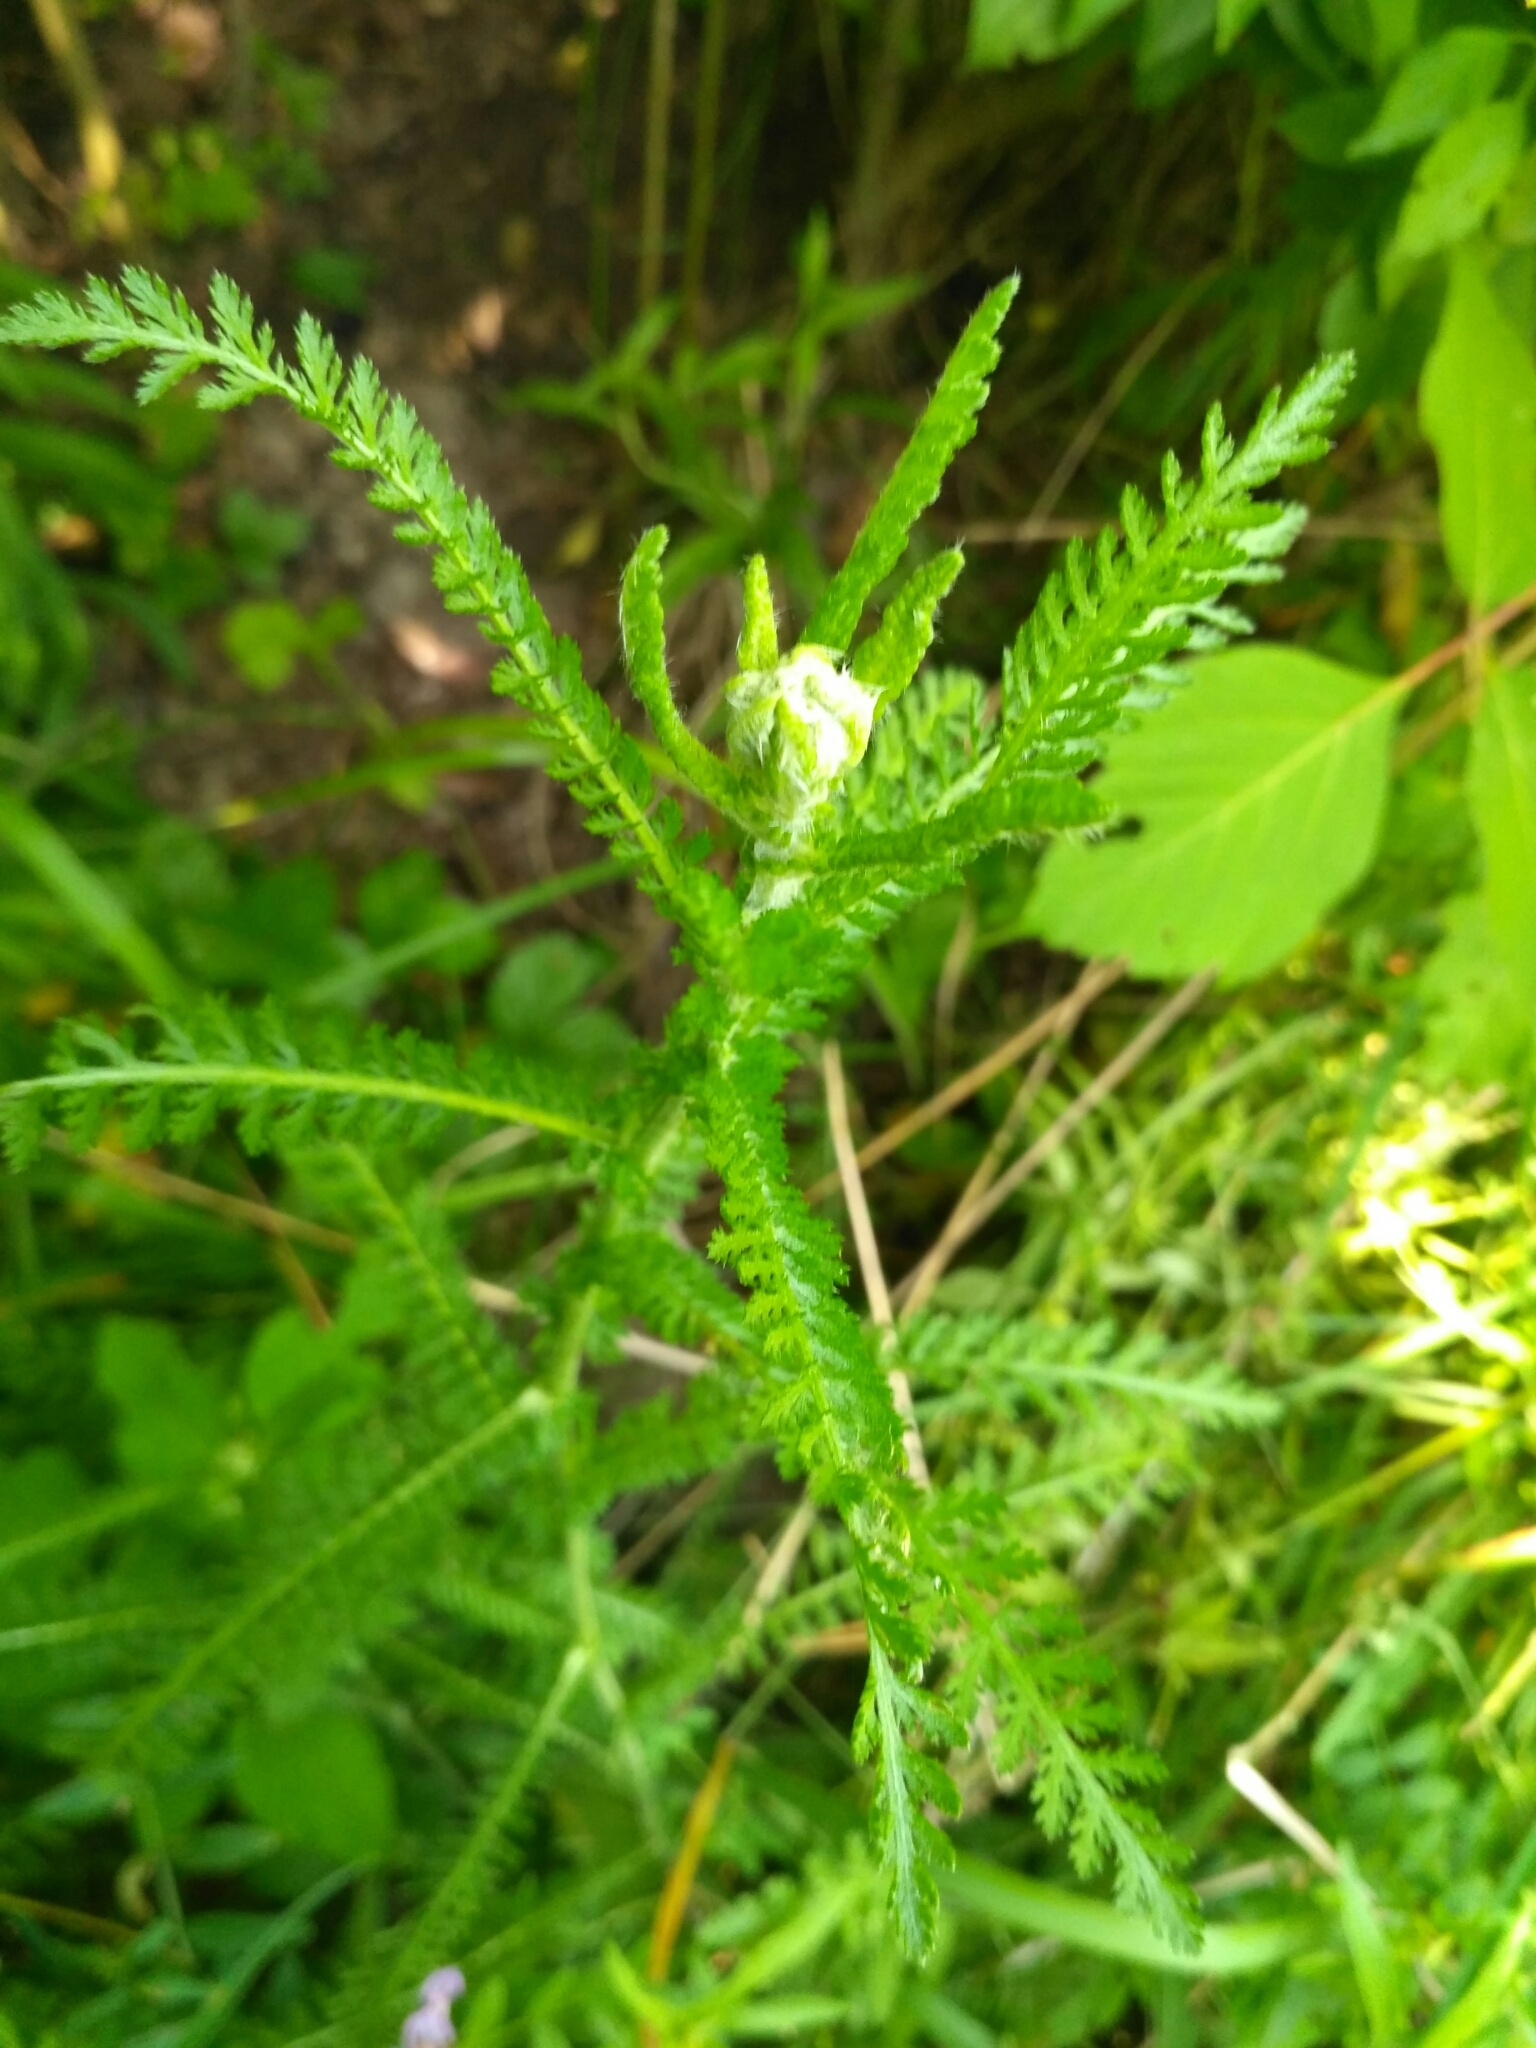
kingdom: Plantae
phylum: Tracheophyta
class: Magnoliopsida
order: Asterales
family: Asteraceae
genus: Achillea
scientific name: Achillea millefolium
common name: Yarrow
